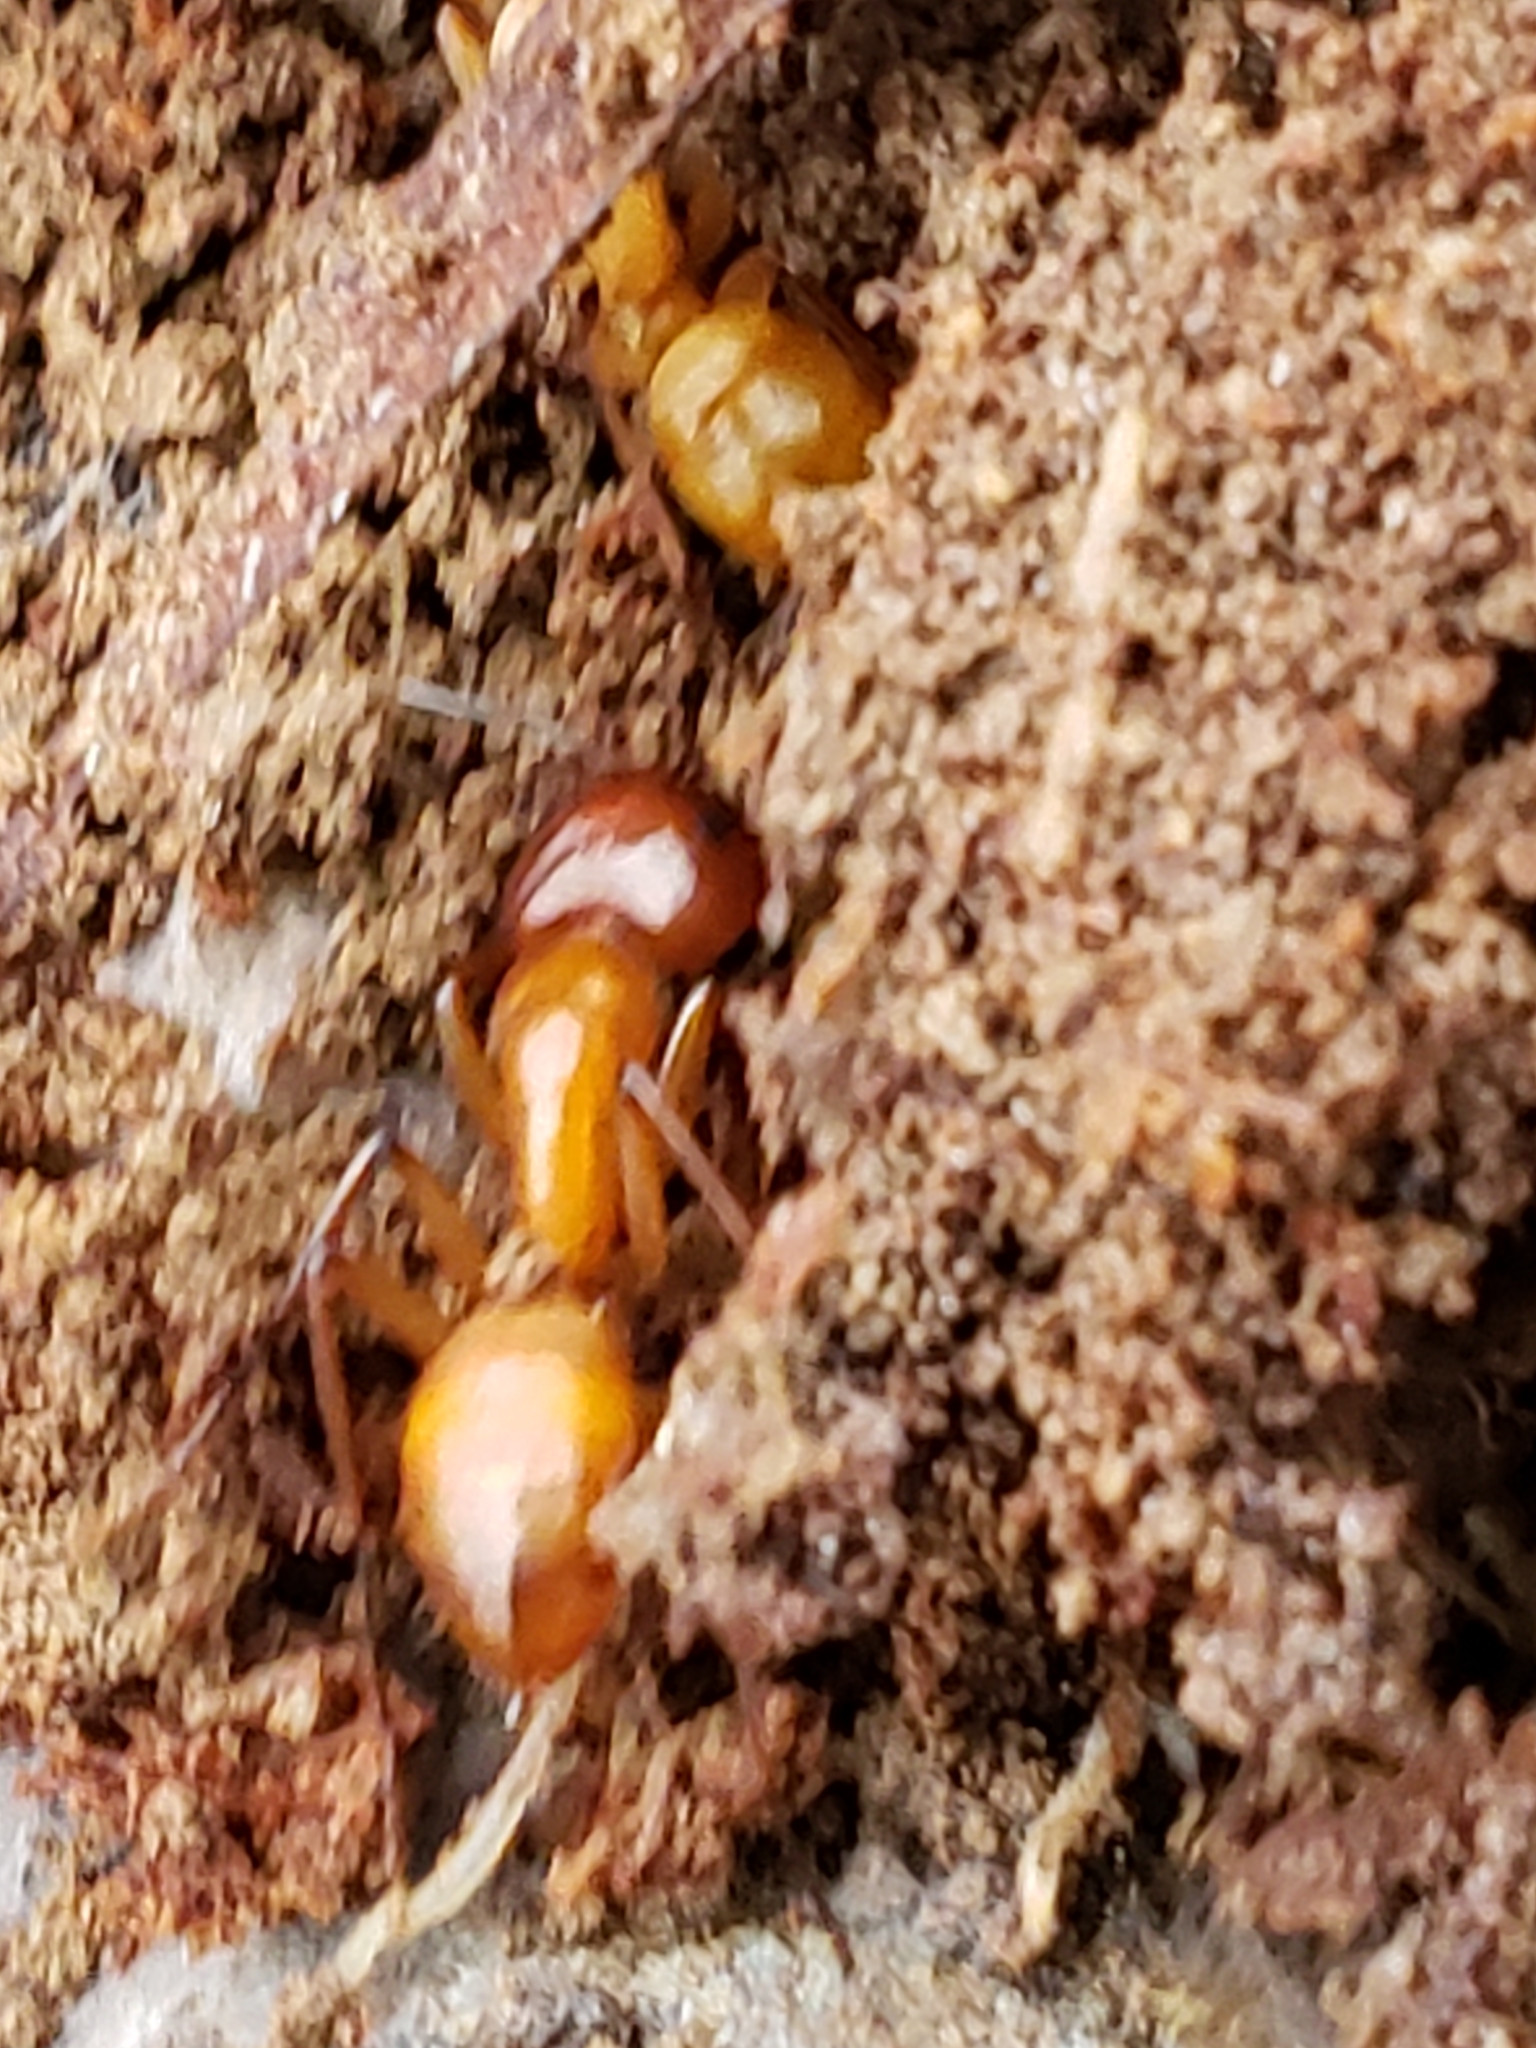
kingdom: Animalia
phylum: Arthropoda
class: Insecta
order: Hymenoptera
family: Formicidae
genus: Camponotus
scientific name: Camponotus castaneus
